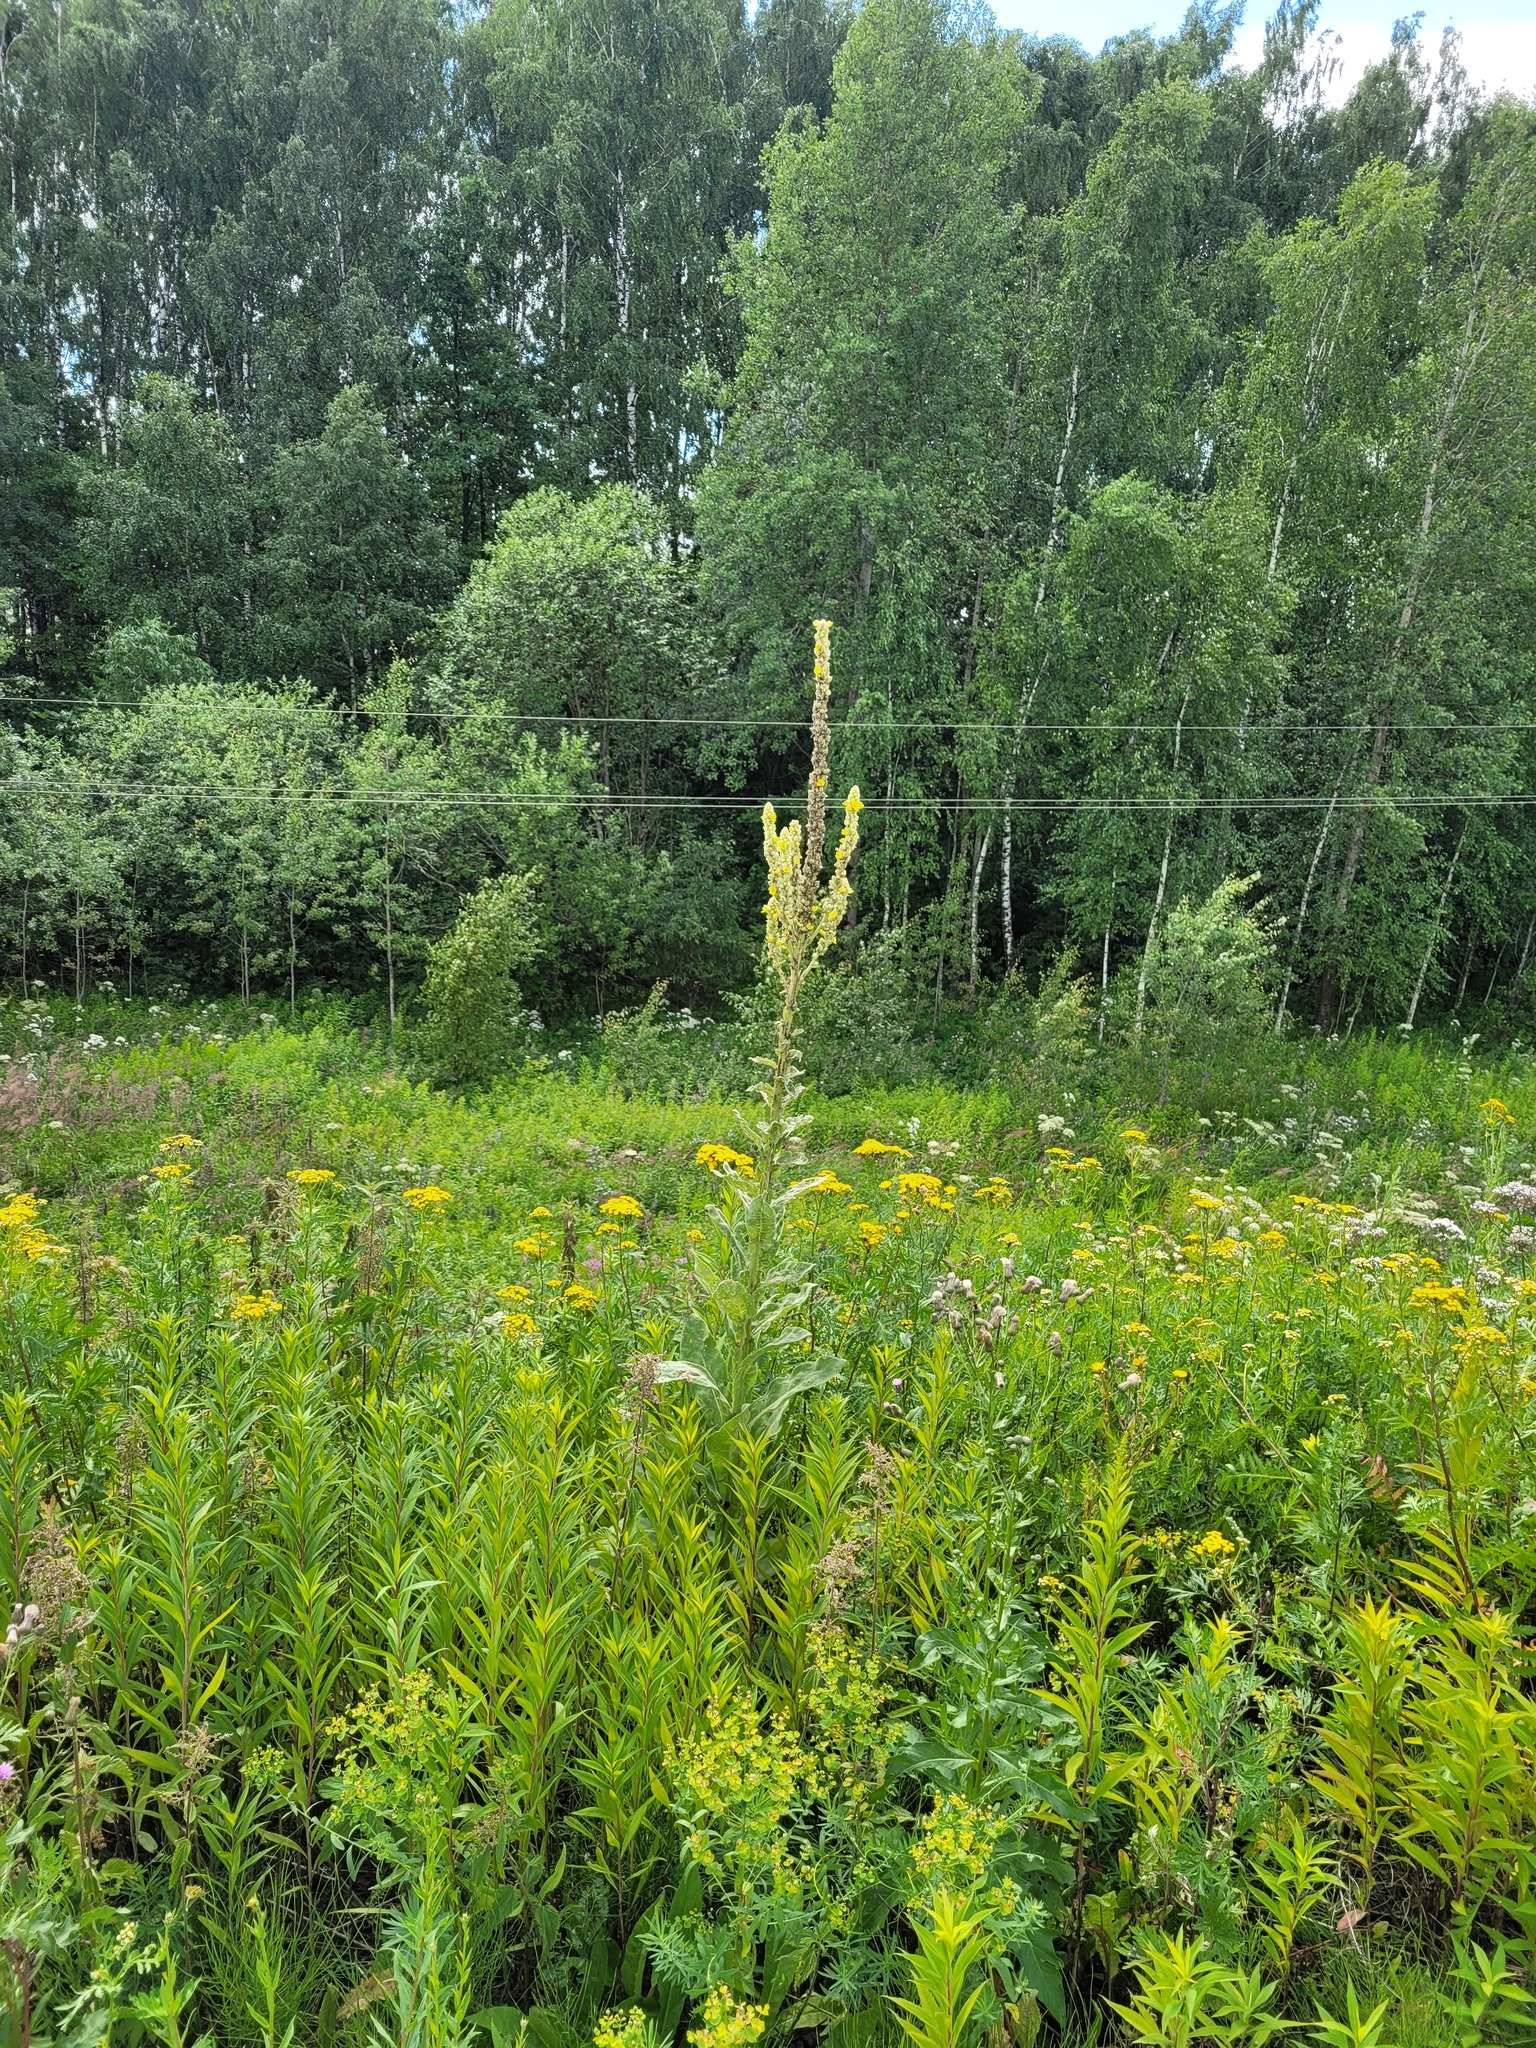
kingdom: Plantae
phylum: Tracheophyta
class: Magnoliopsida
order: Lamiales
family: Scrophulariaceae
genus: Verbascum
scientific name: Verbascum thapsus
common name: Common mullein
